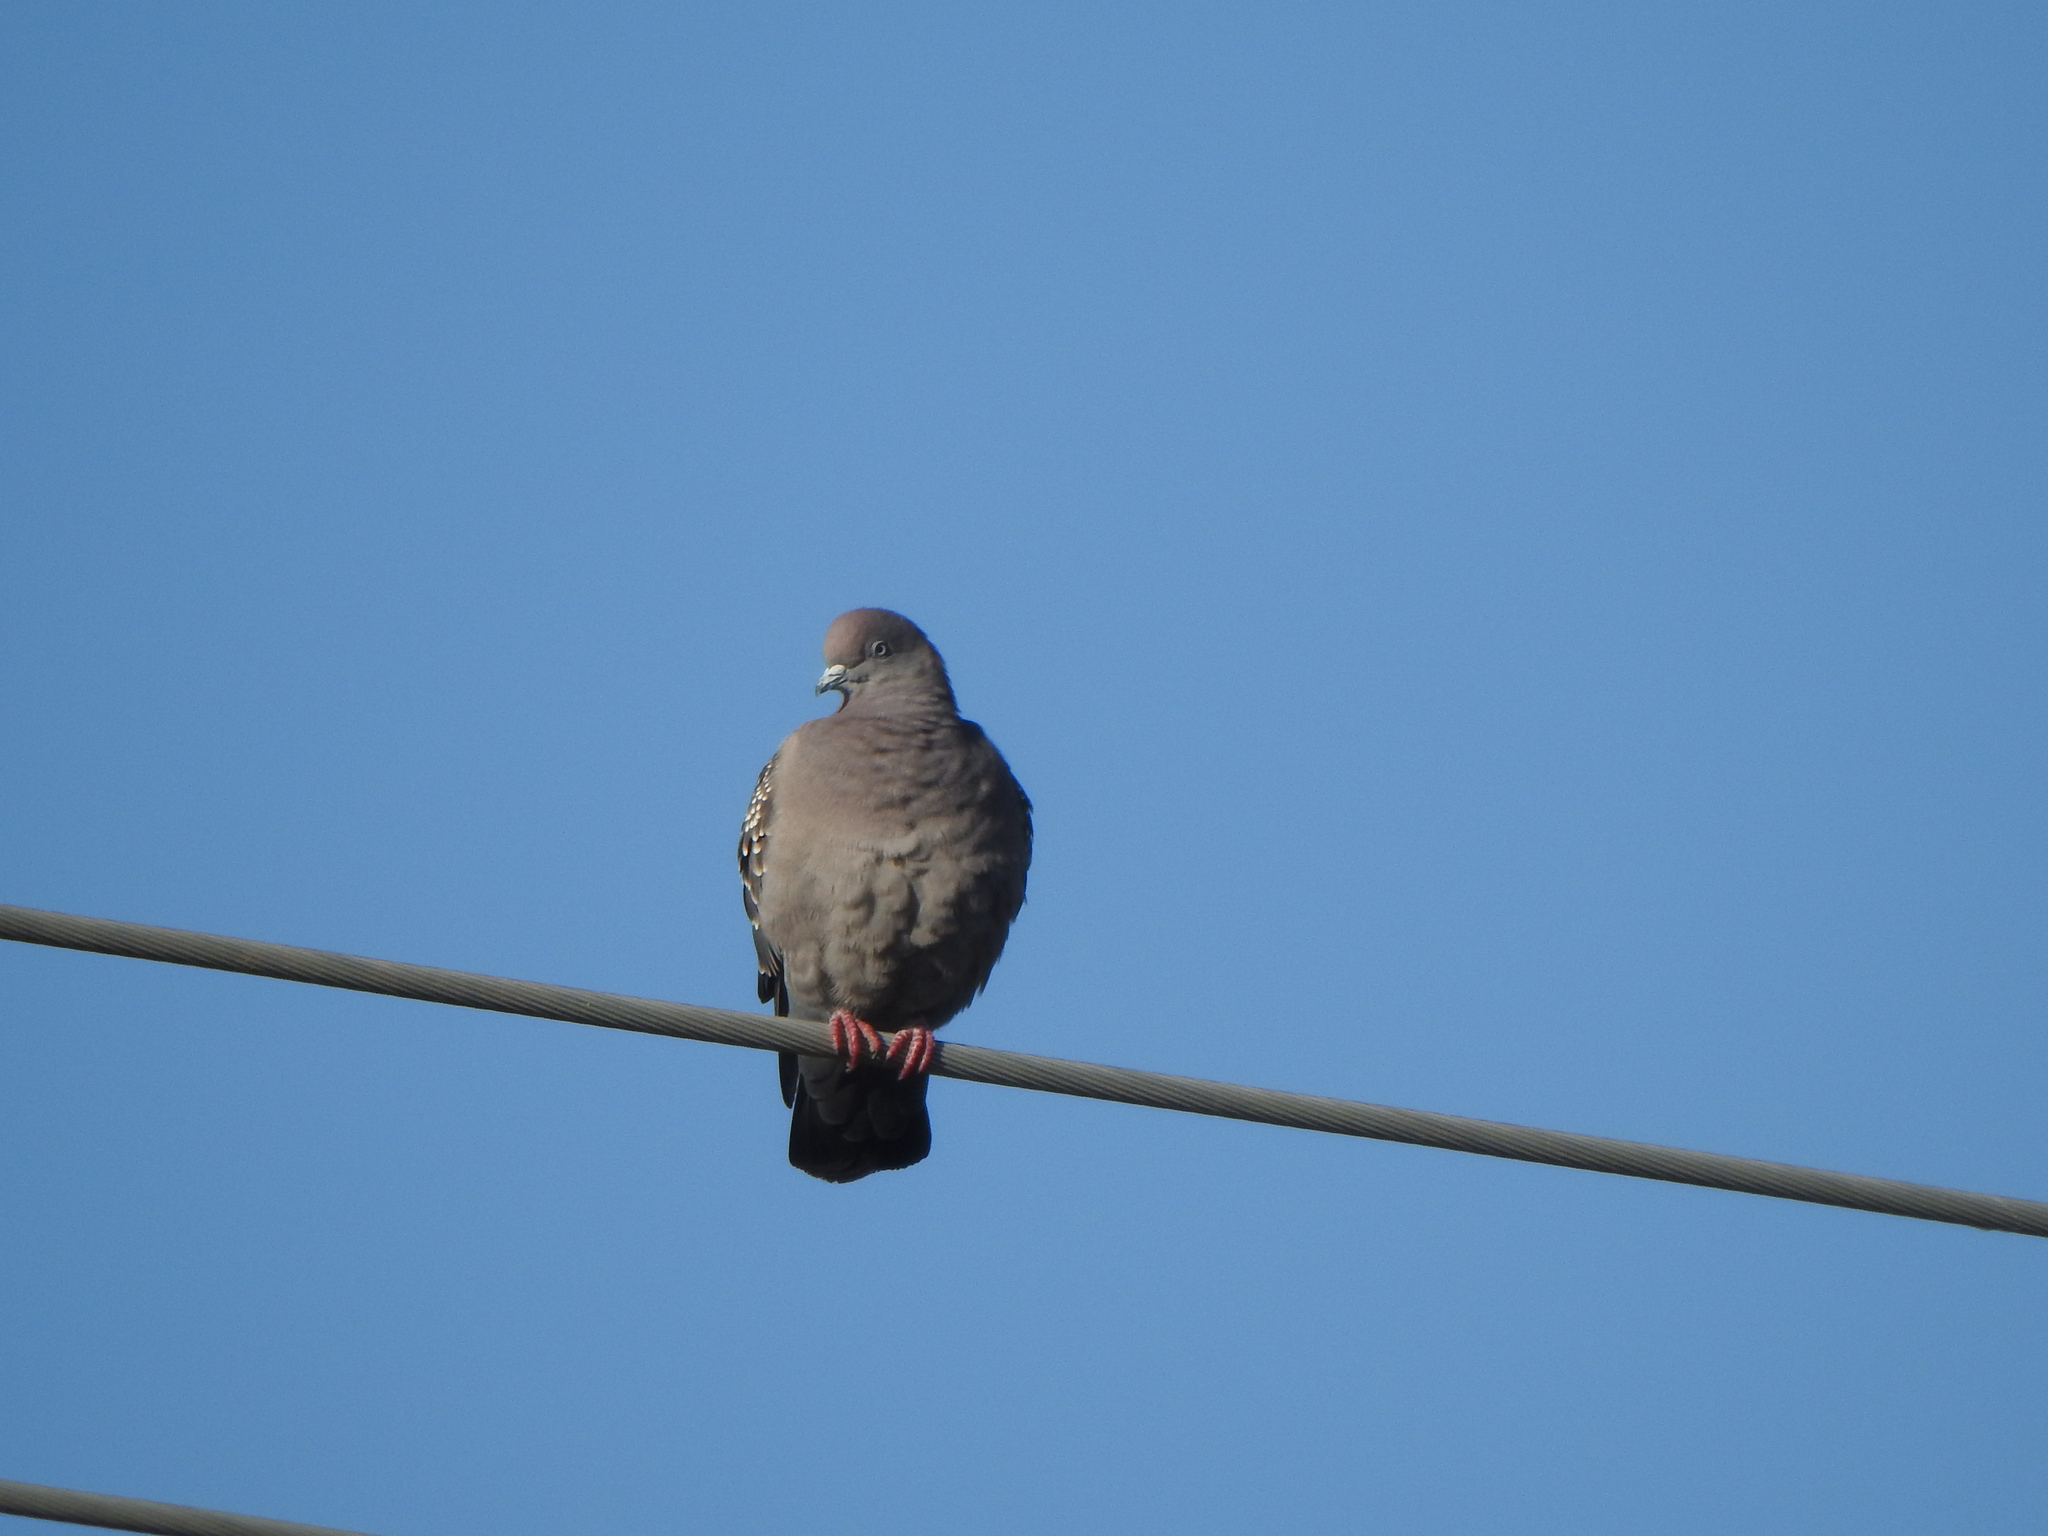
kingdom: Animalia
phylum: Chordata
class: Aves
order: Columbiformes
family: Columbidae
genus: Patagioenas
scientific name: Patagioenas maculosa
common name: Spot-winged pigeon
